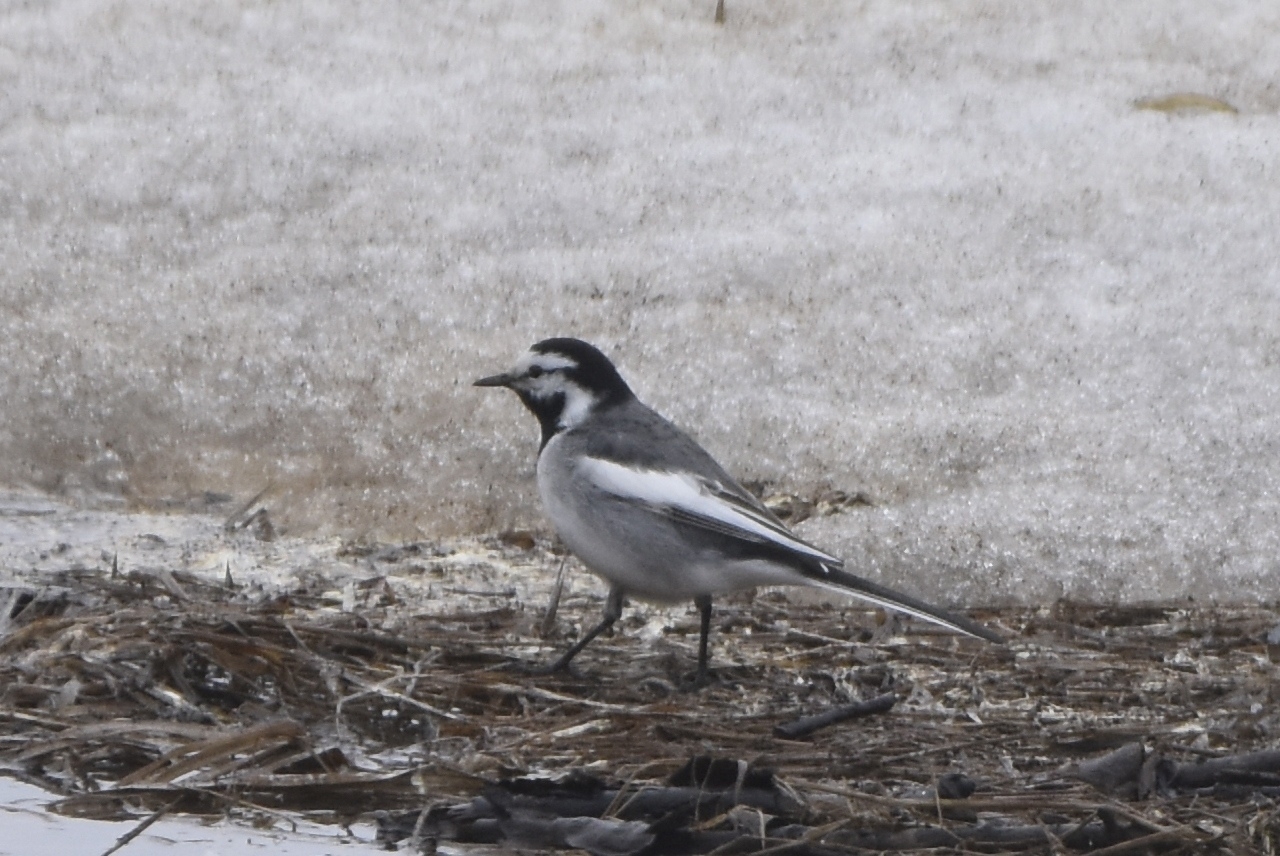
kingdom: Animalia
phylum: Chordata
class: Aves
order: Passeriformes
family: Motacillidae
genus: Motacilla
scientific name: Motacilla alba
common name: White wagtail
